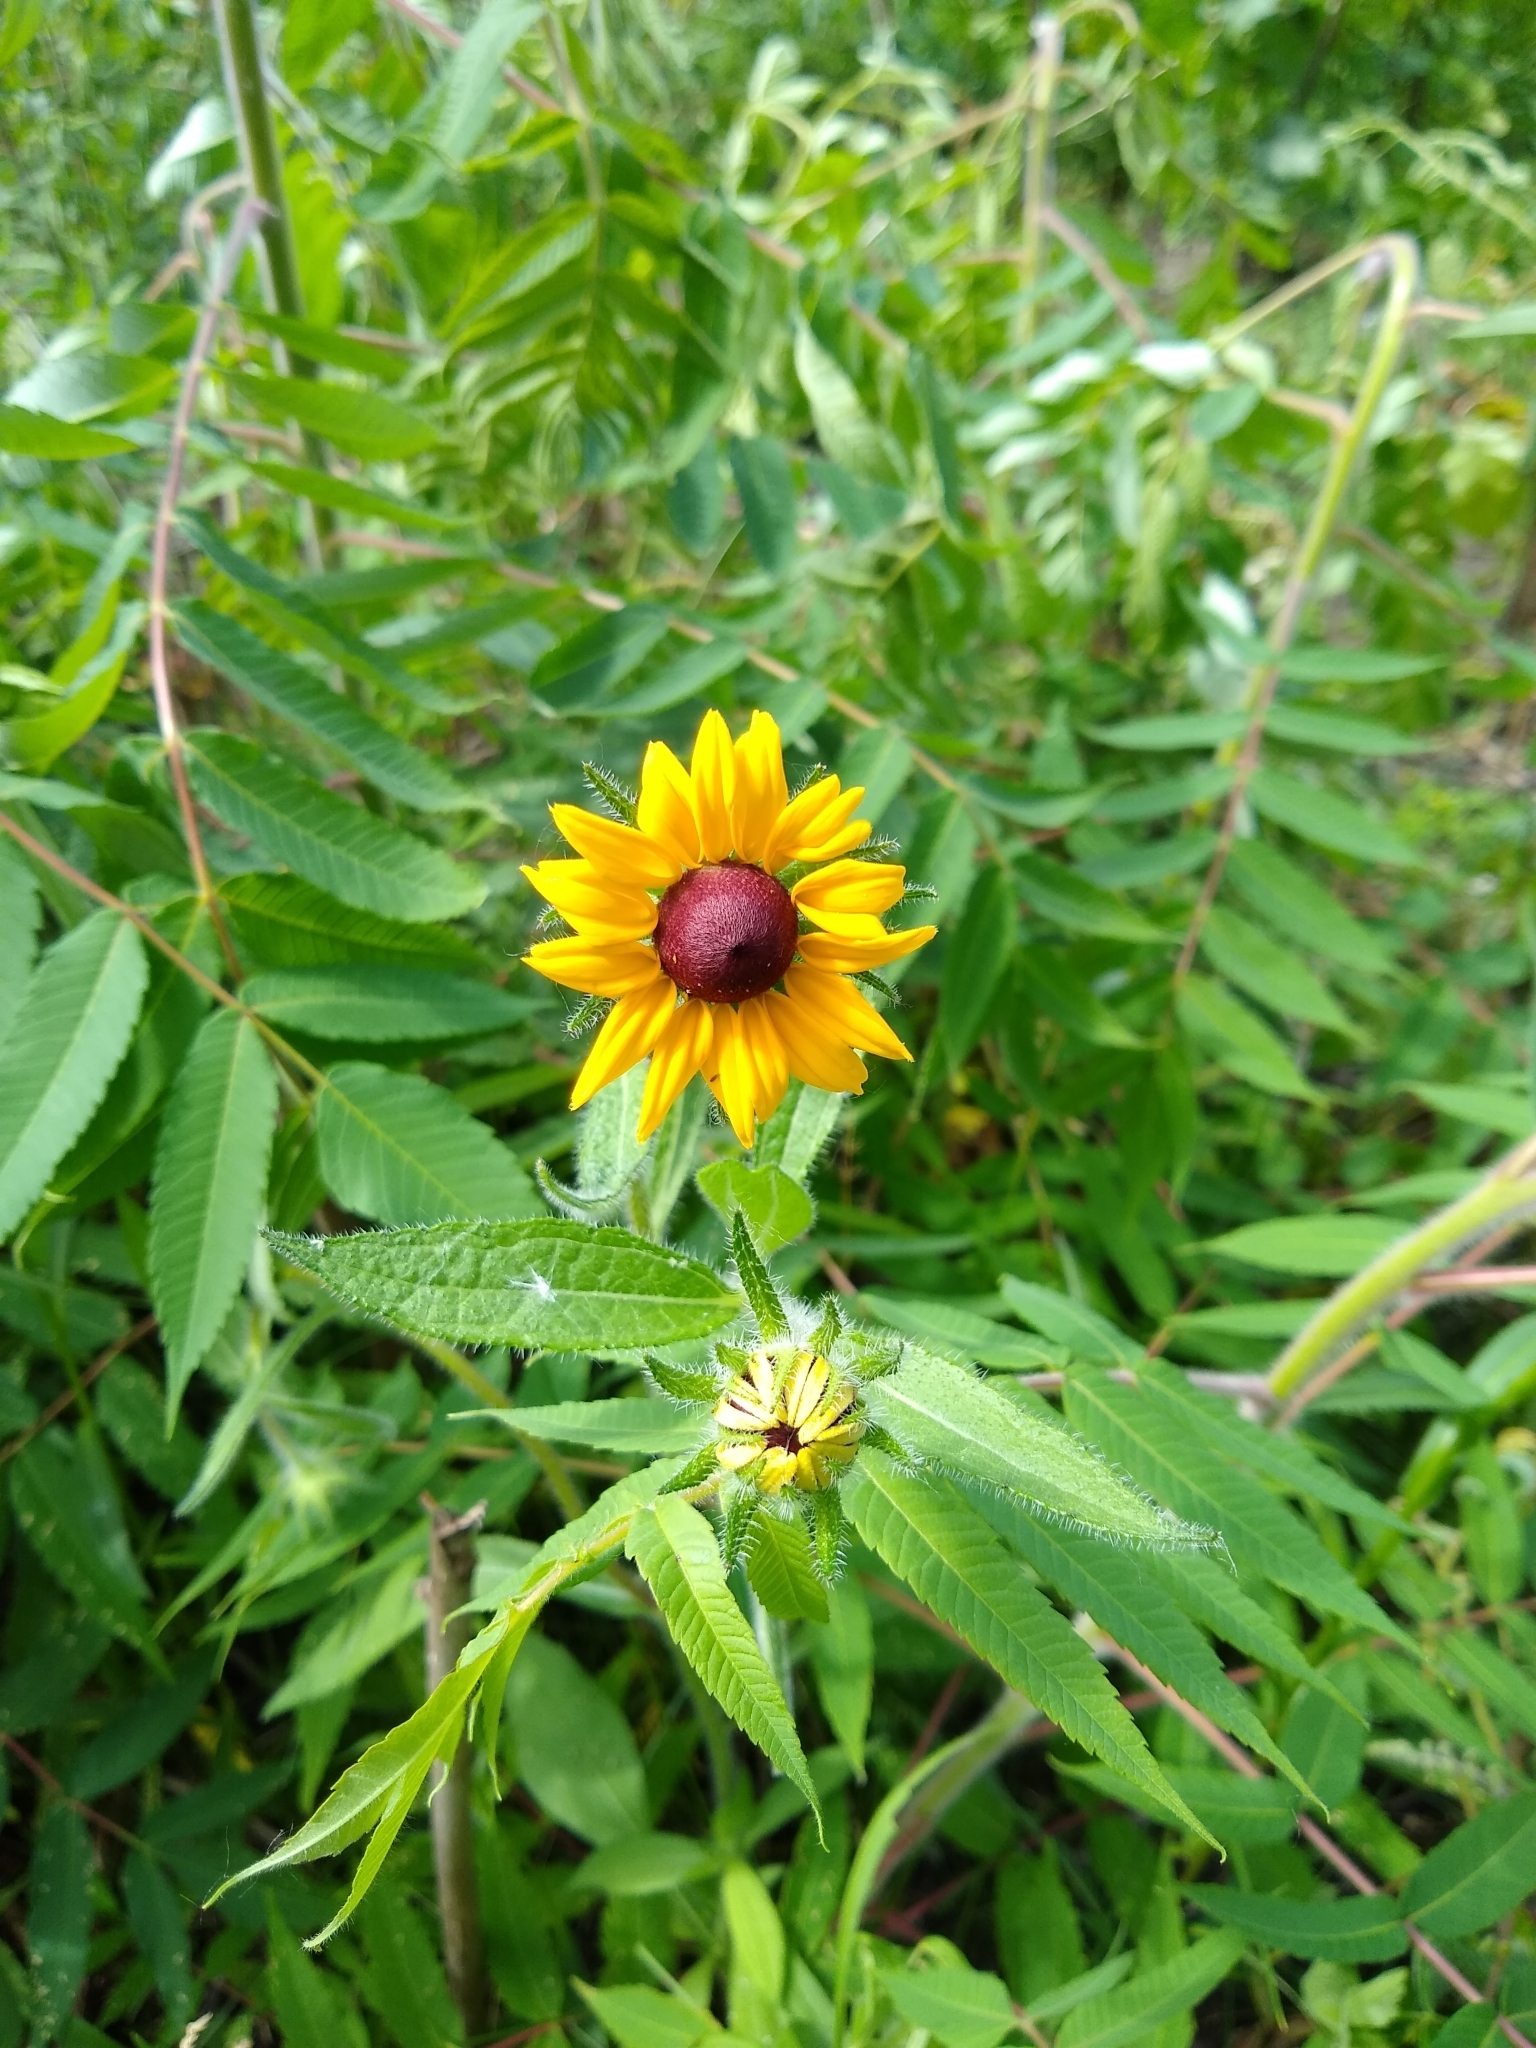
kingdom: Plantae
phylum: Tracheophyta
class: Magnoliopsida
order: Asterales
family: Asteraceae
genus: Rudbeckia
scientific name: Rudbeckia hirta
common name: Black-eyed-susan
